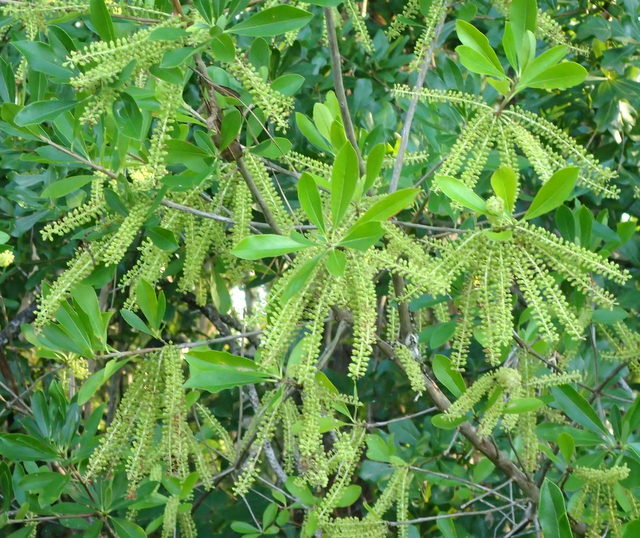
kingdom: Plantae
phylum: Tracheophyta
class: Magnoliopsida
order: Ericales
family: Cyrillaceae
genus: Cyrilla
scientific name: Cyrilla racemiflora
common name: Black titi
